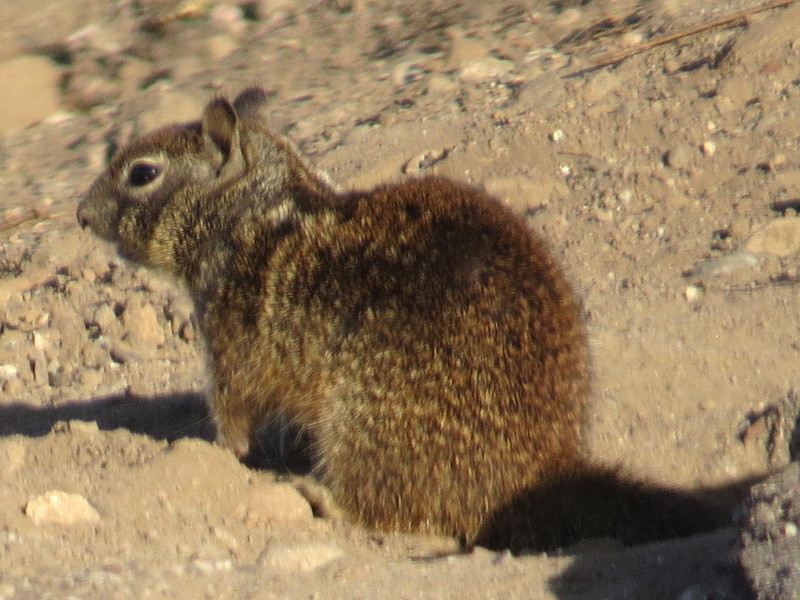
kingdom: Animalia
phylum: Chordata
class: Mammalia
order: Rodentia
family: Sciuridae
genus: Otospermophilus
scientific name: Otospermophilus beecheyi
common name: California ground squirrel
